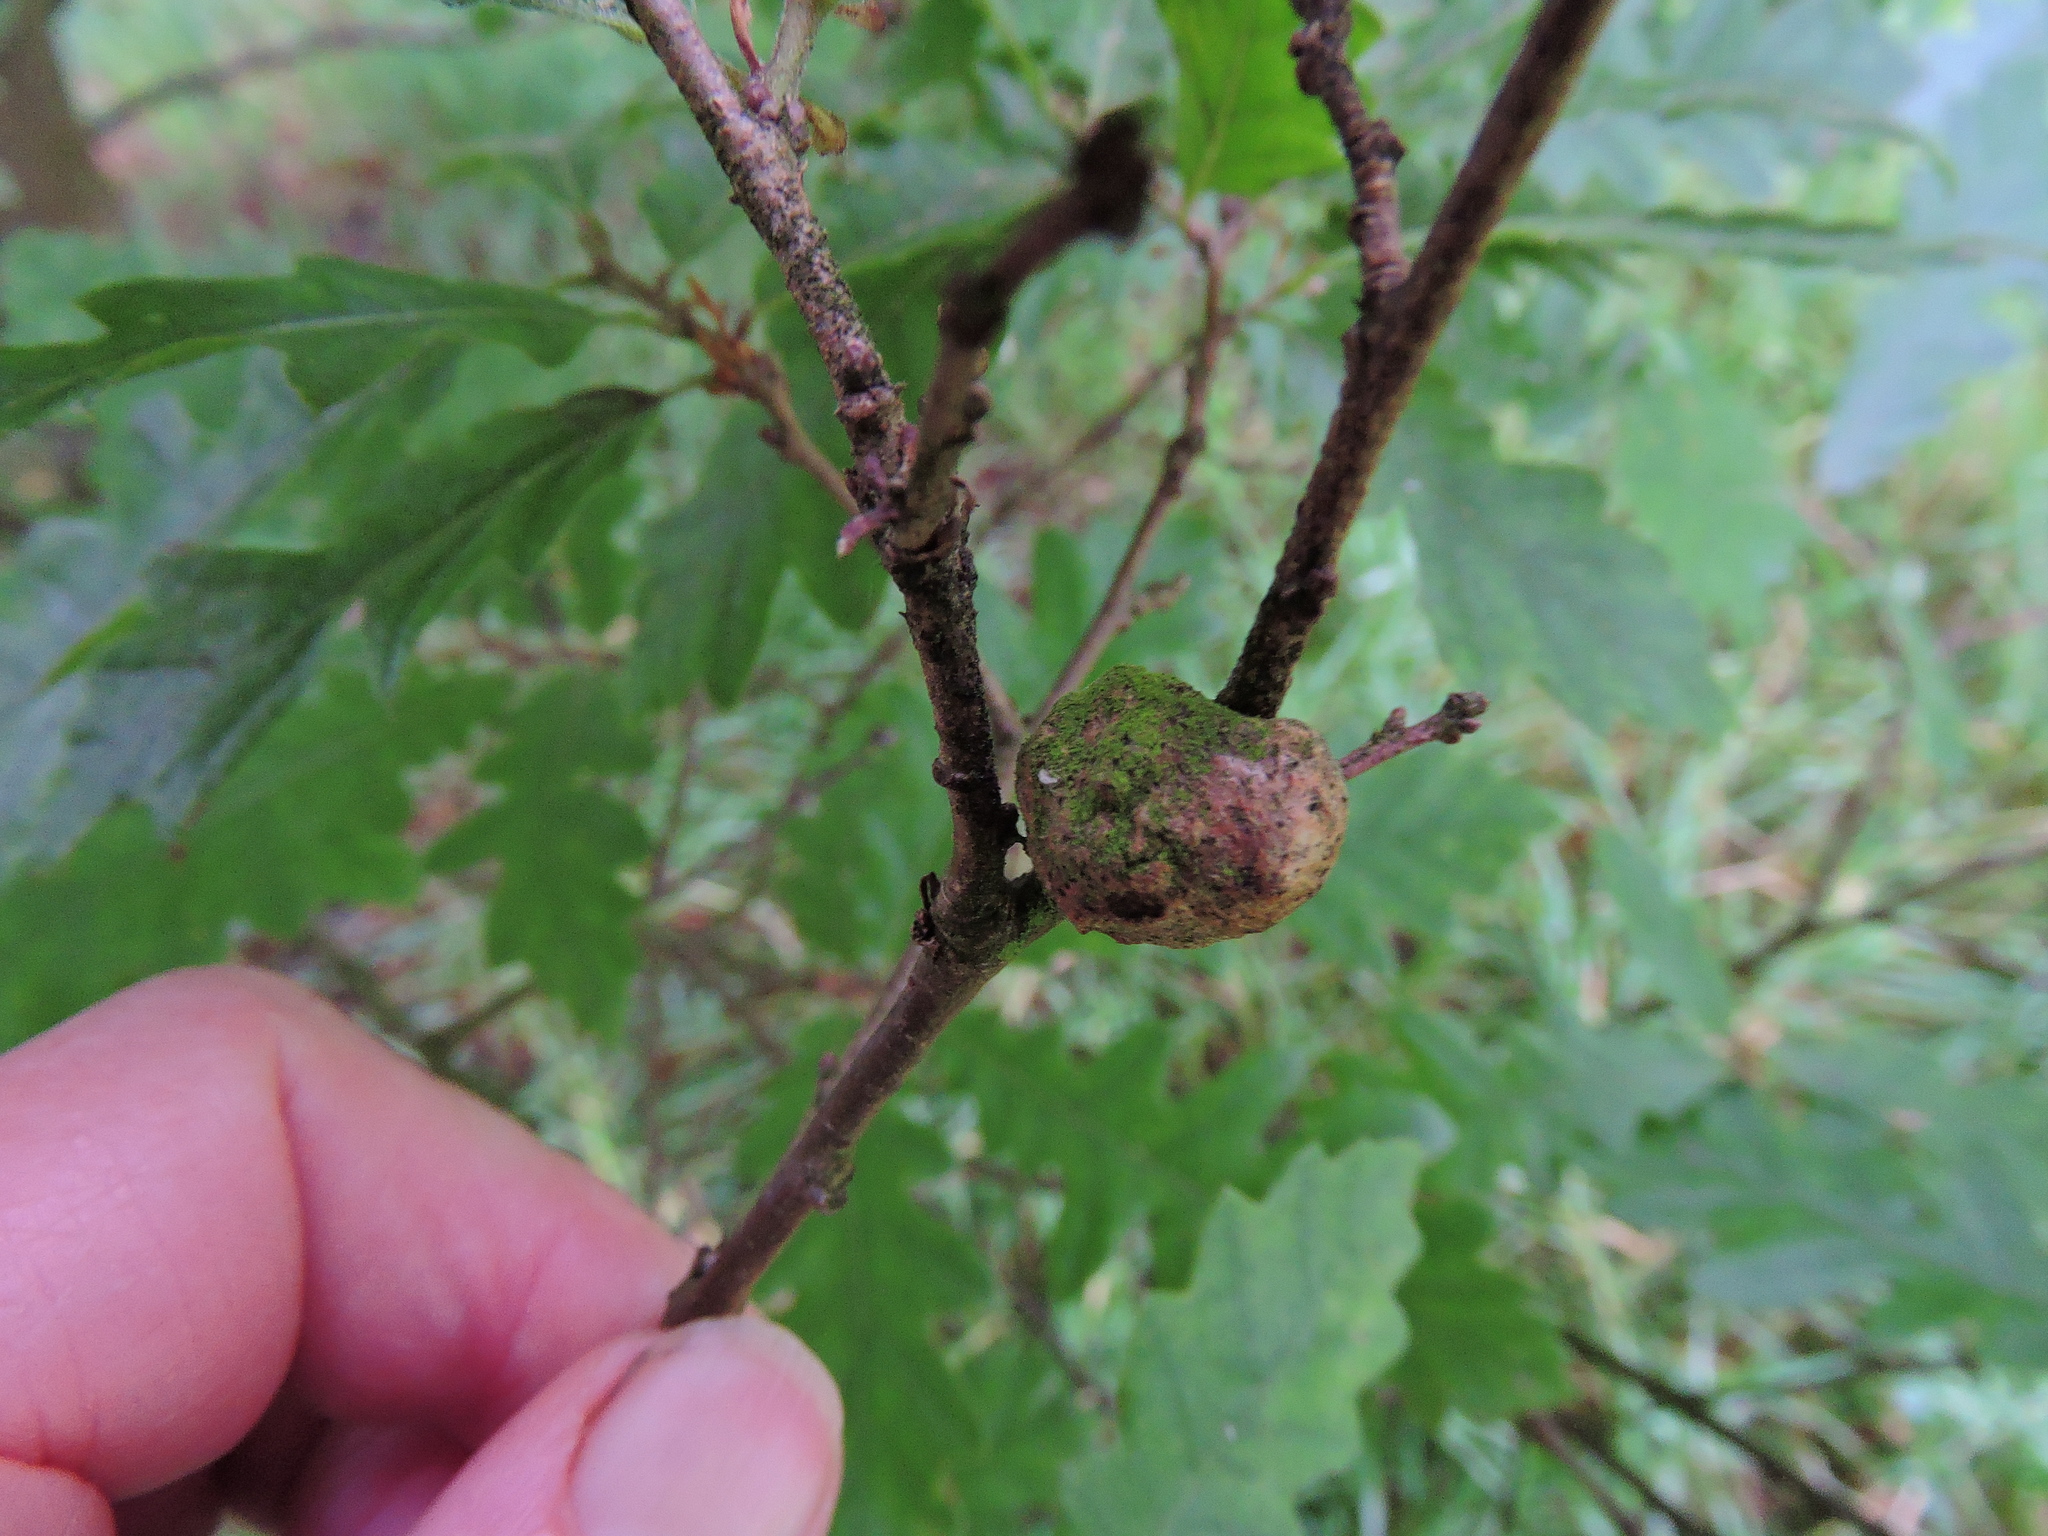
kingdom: Animalia
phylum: Arthropoda
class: Insecta
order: Hymenoptera
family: Cynipidae
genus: Aphelonyx
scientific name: Aphelonyx cerricola
